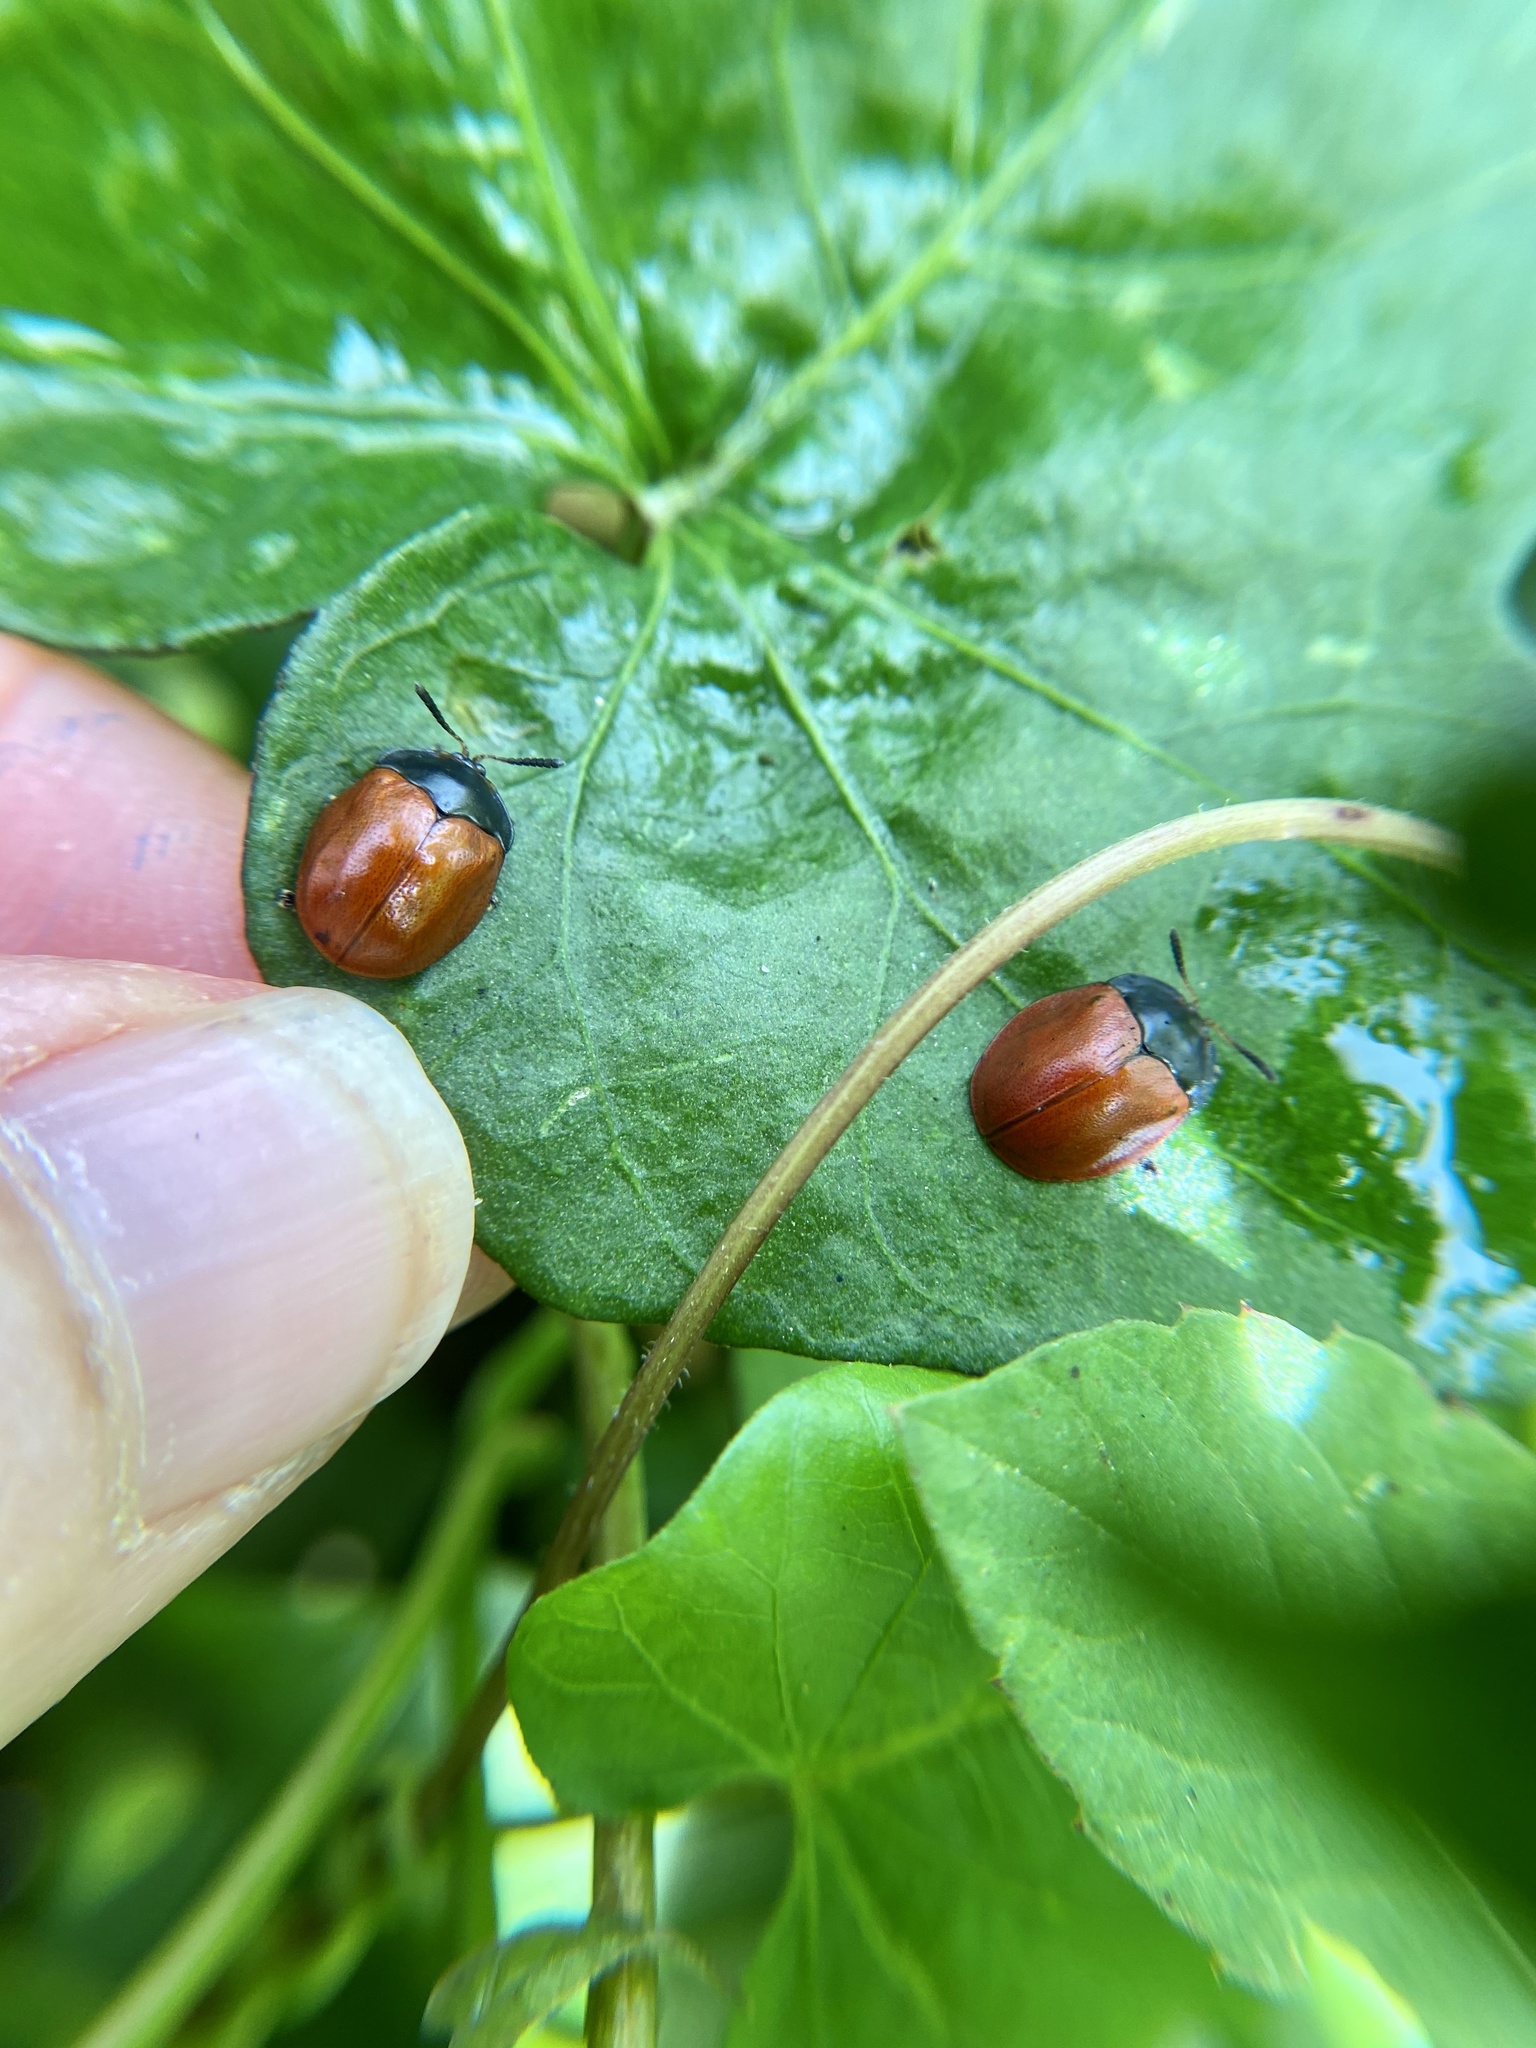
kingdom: Animalia
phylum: Arthropoda
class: Insecta
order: Coleoptera
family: Chrysomelidae
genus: Chelymorpha
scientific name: Chelymorpha cribraria
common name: Tortoise beetle
